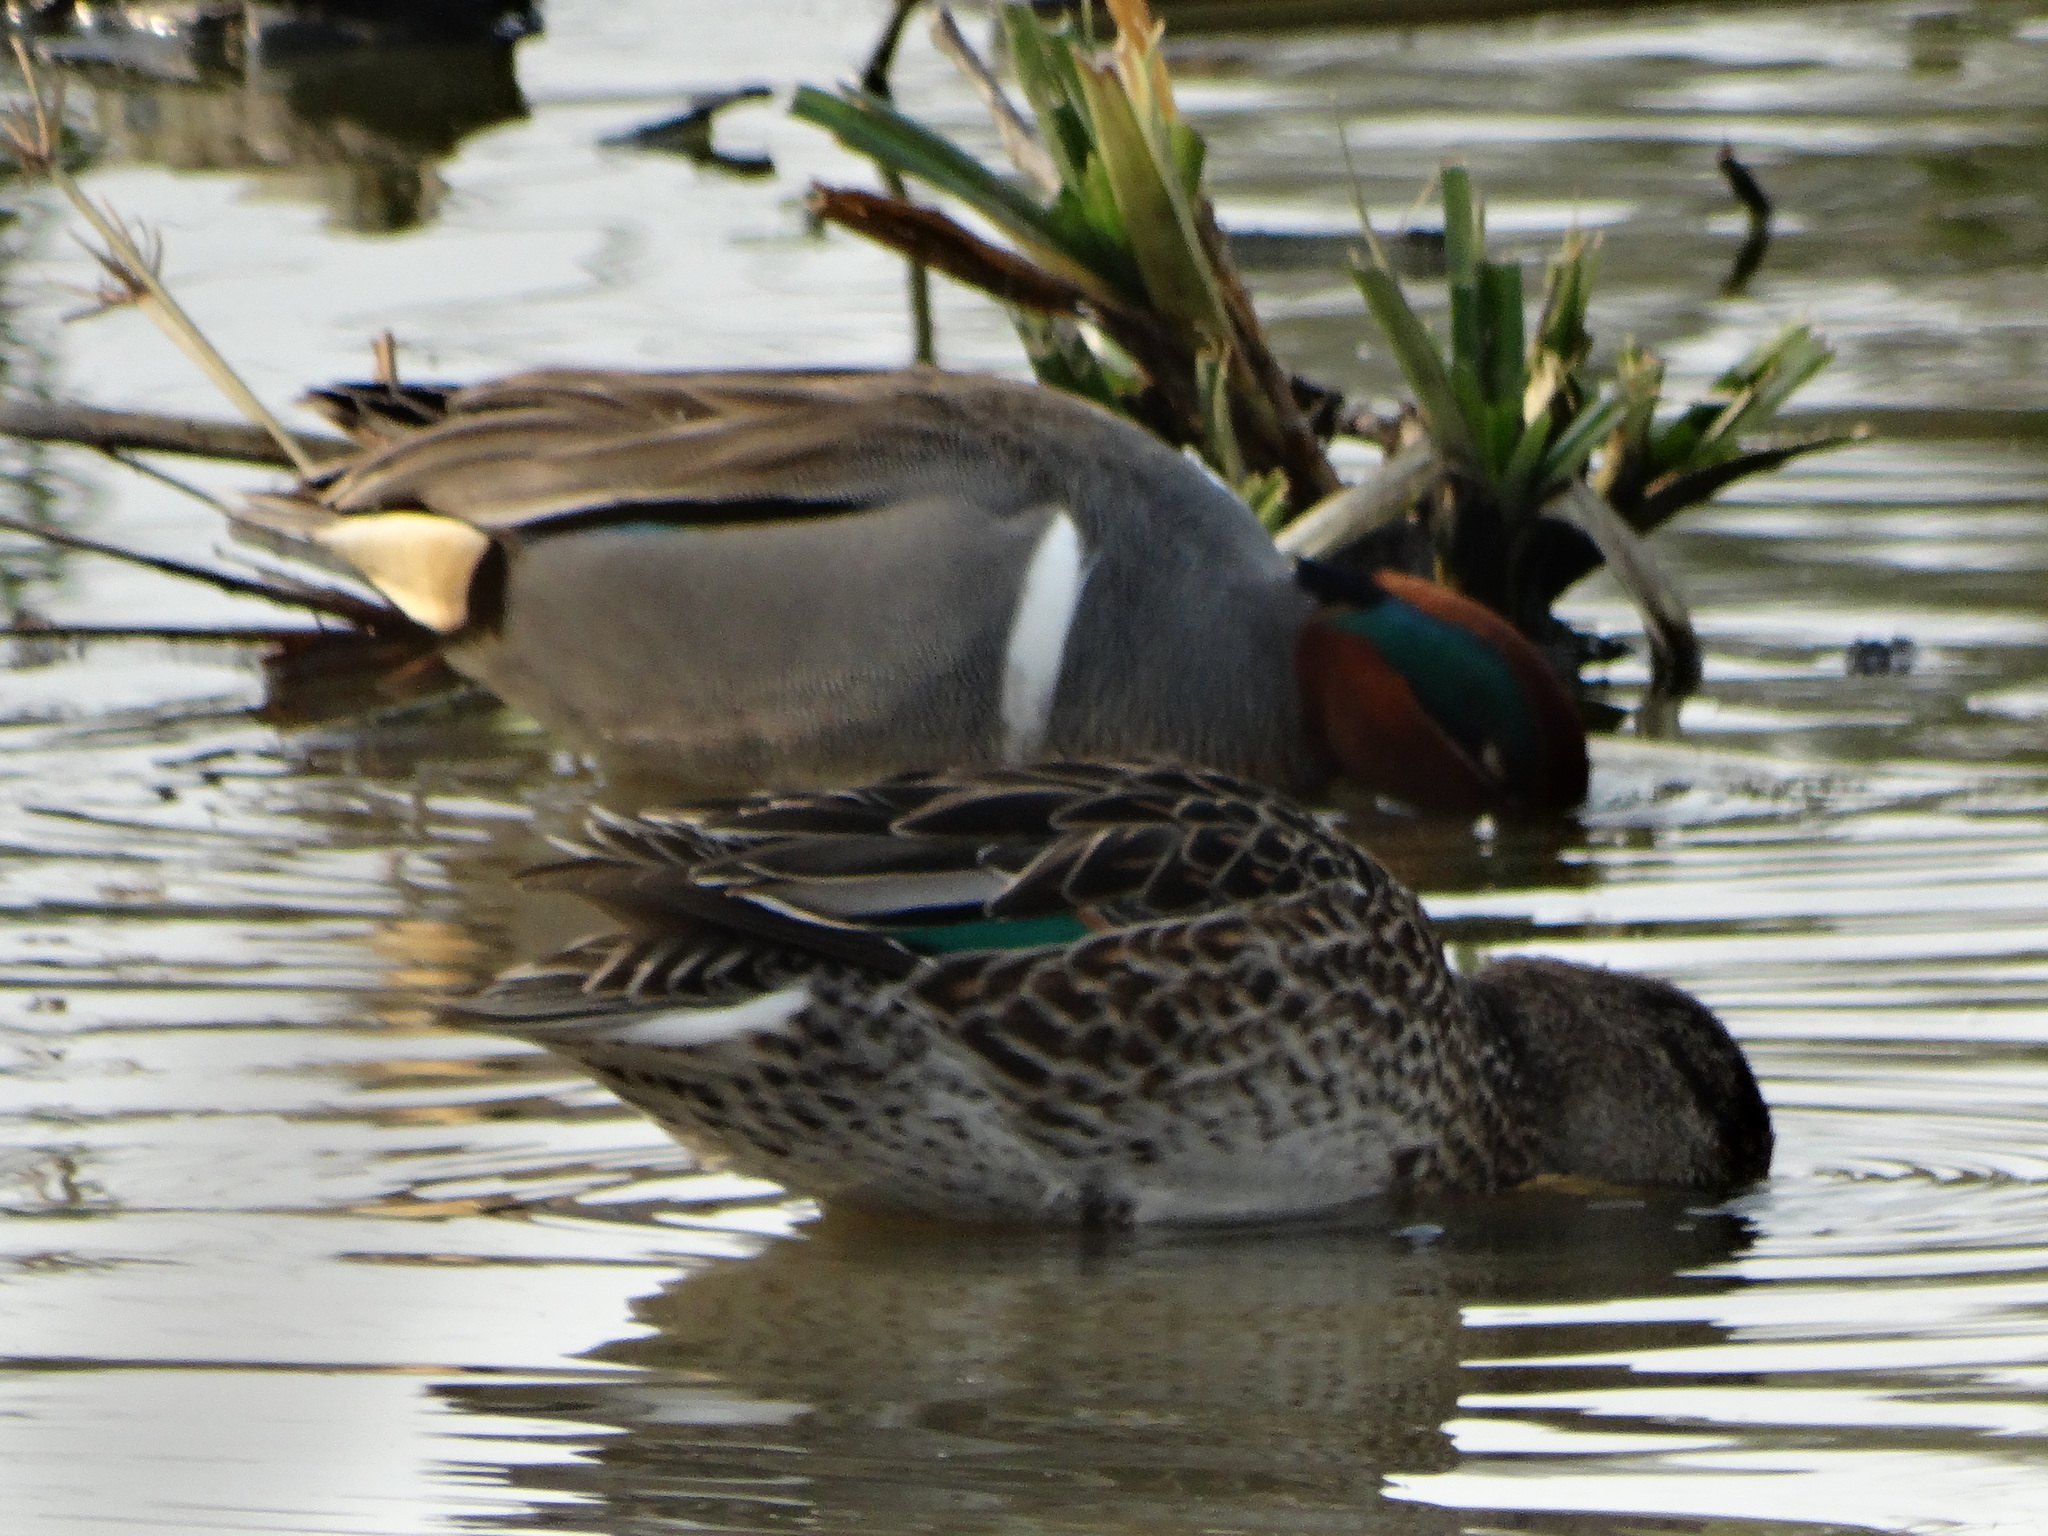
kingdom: Animalia
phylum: Chordata
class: Aves
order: Anseriformes
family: Anatidae
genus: Anas
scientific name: Anas crecca
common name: Eurasian teal
